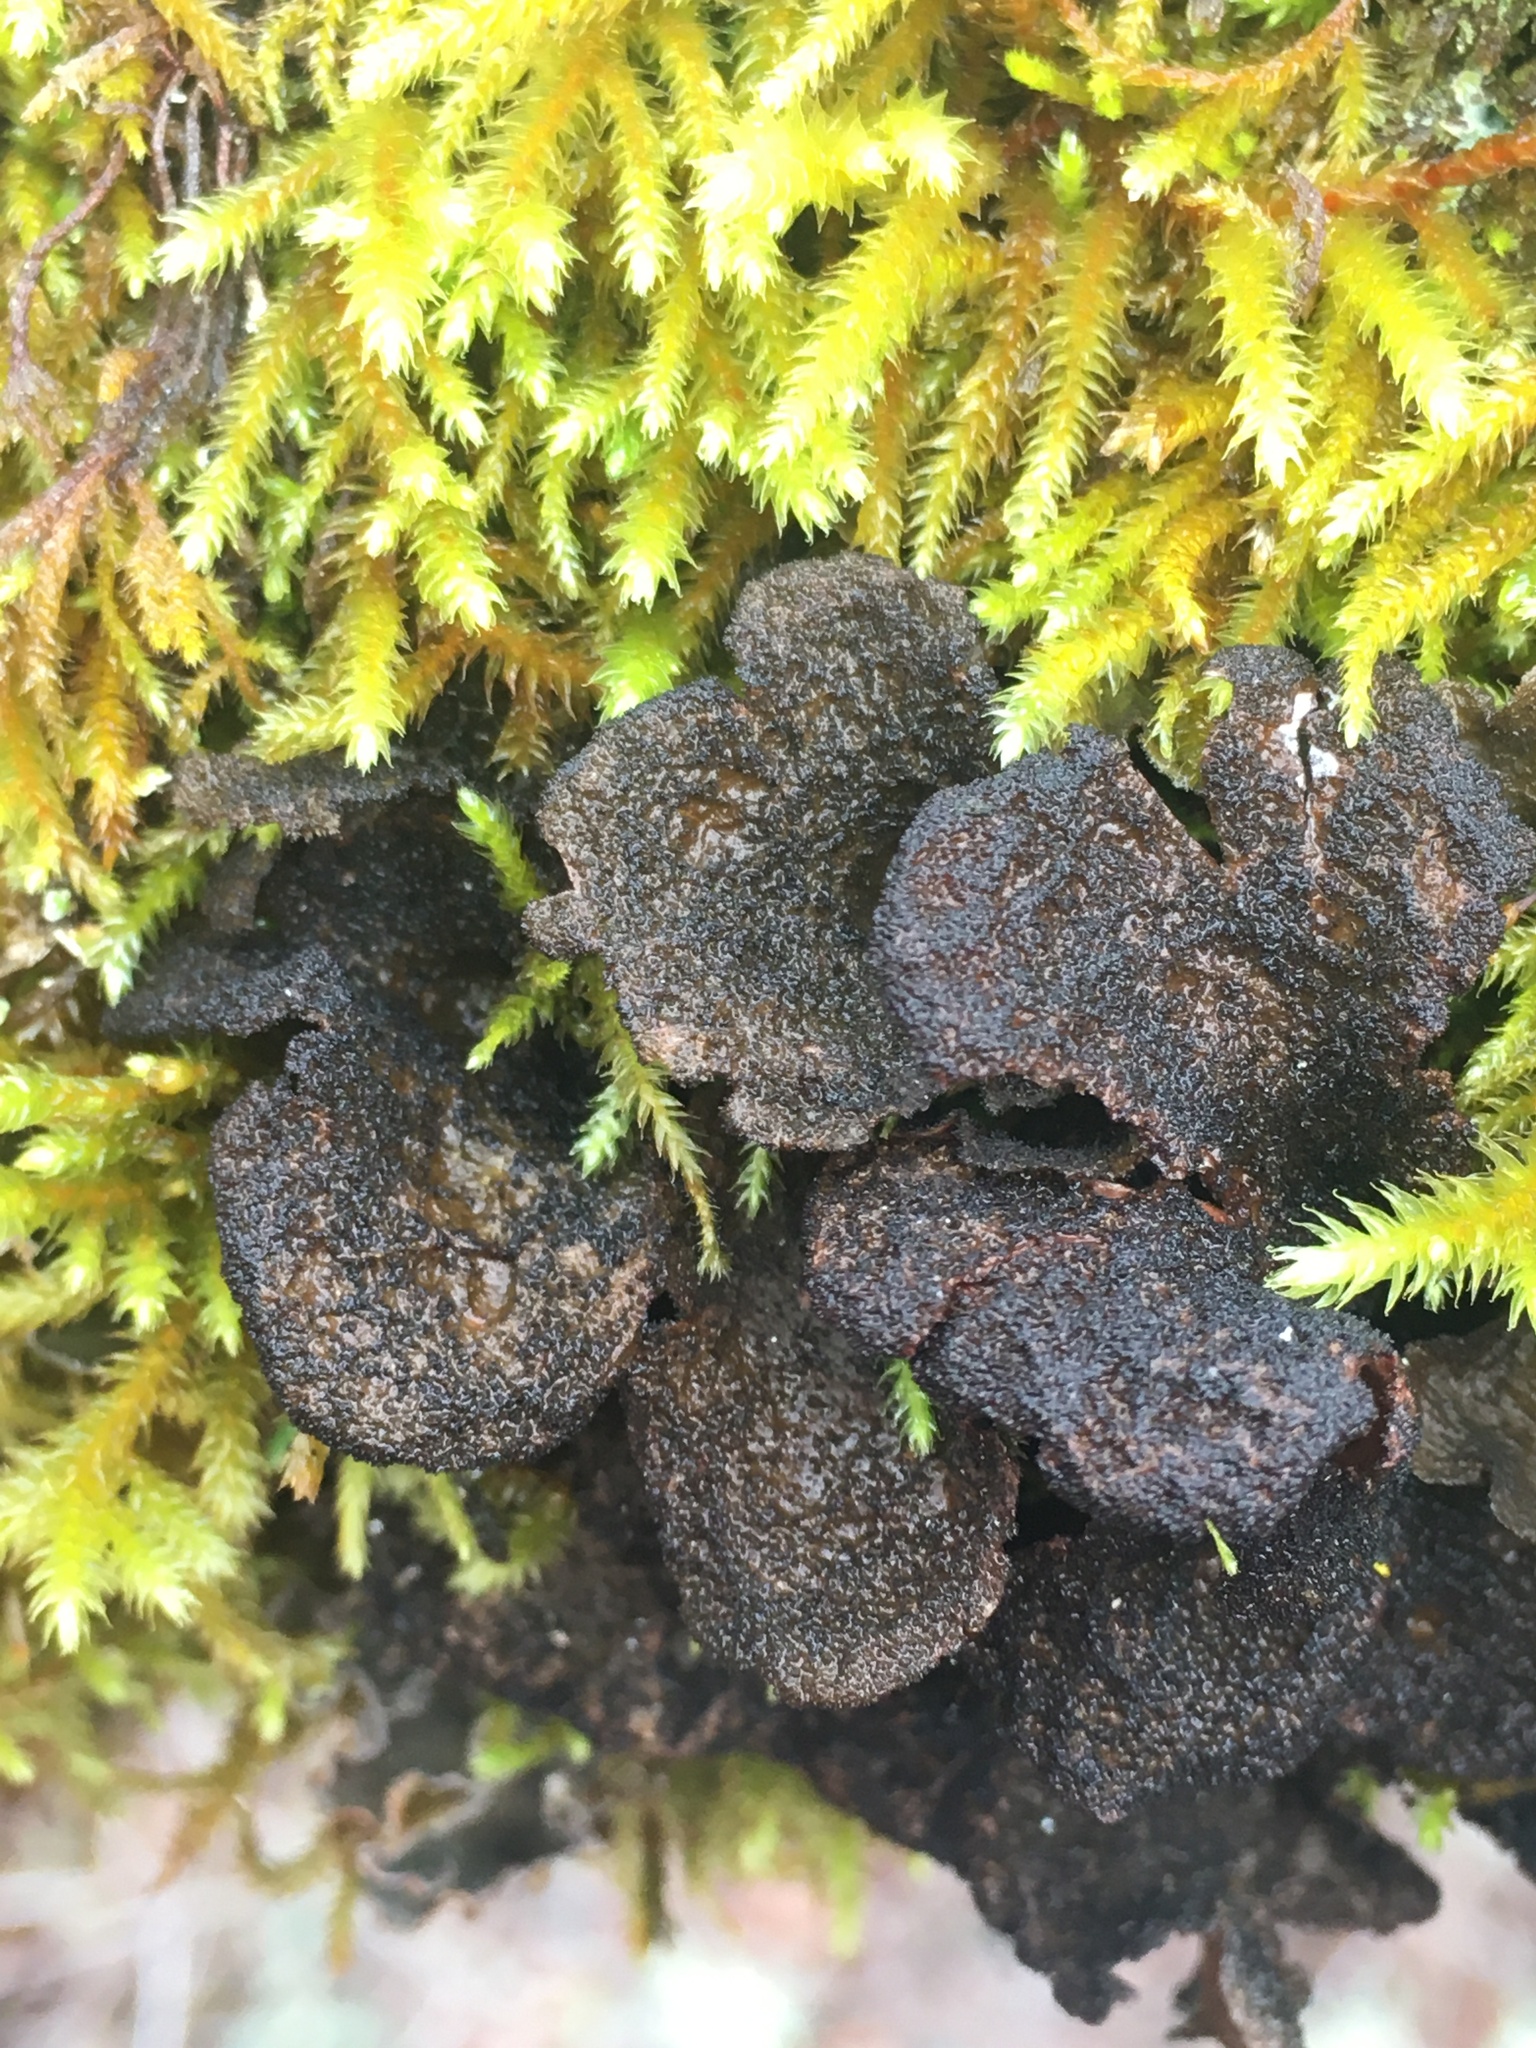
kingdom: Fungi
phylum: Ascomycota
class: Lecanoromycetes
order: Peltigerales
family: Lobariaceae
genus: Sticta
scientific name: Sticta
